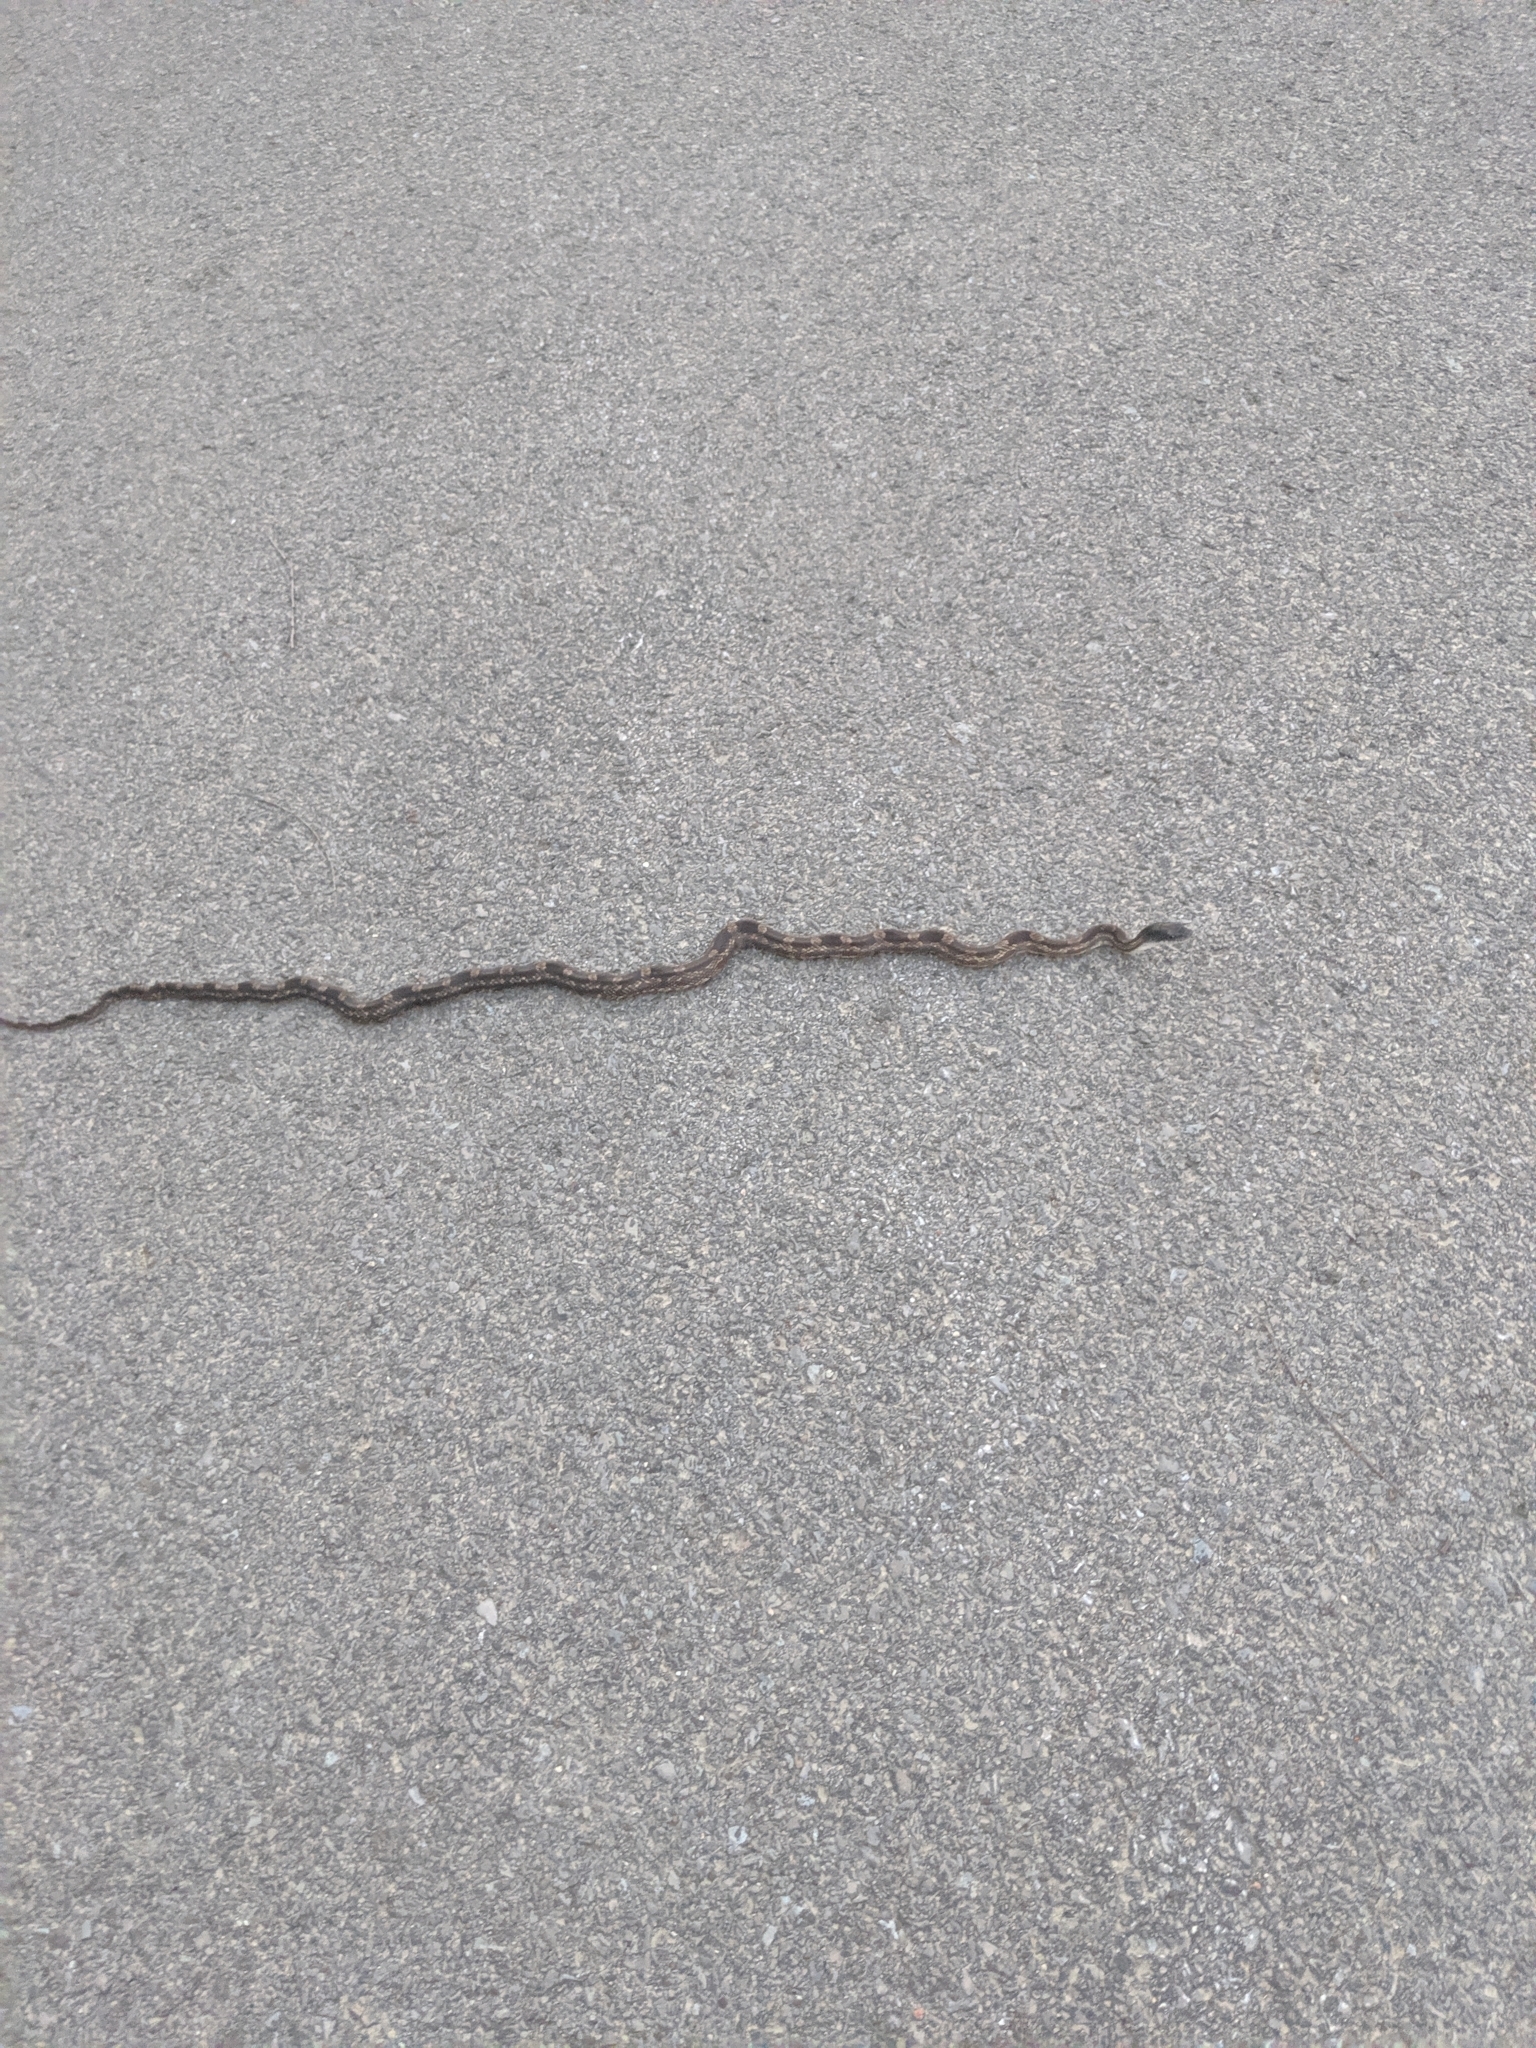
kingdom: Animalia
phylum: Chordata
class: Squamata
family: Colubridae
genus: Pantherophis
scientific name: Pantherophis spiloides
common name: Gray rat snake
